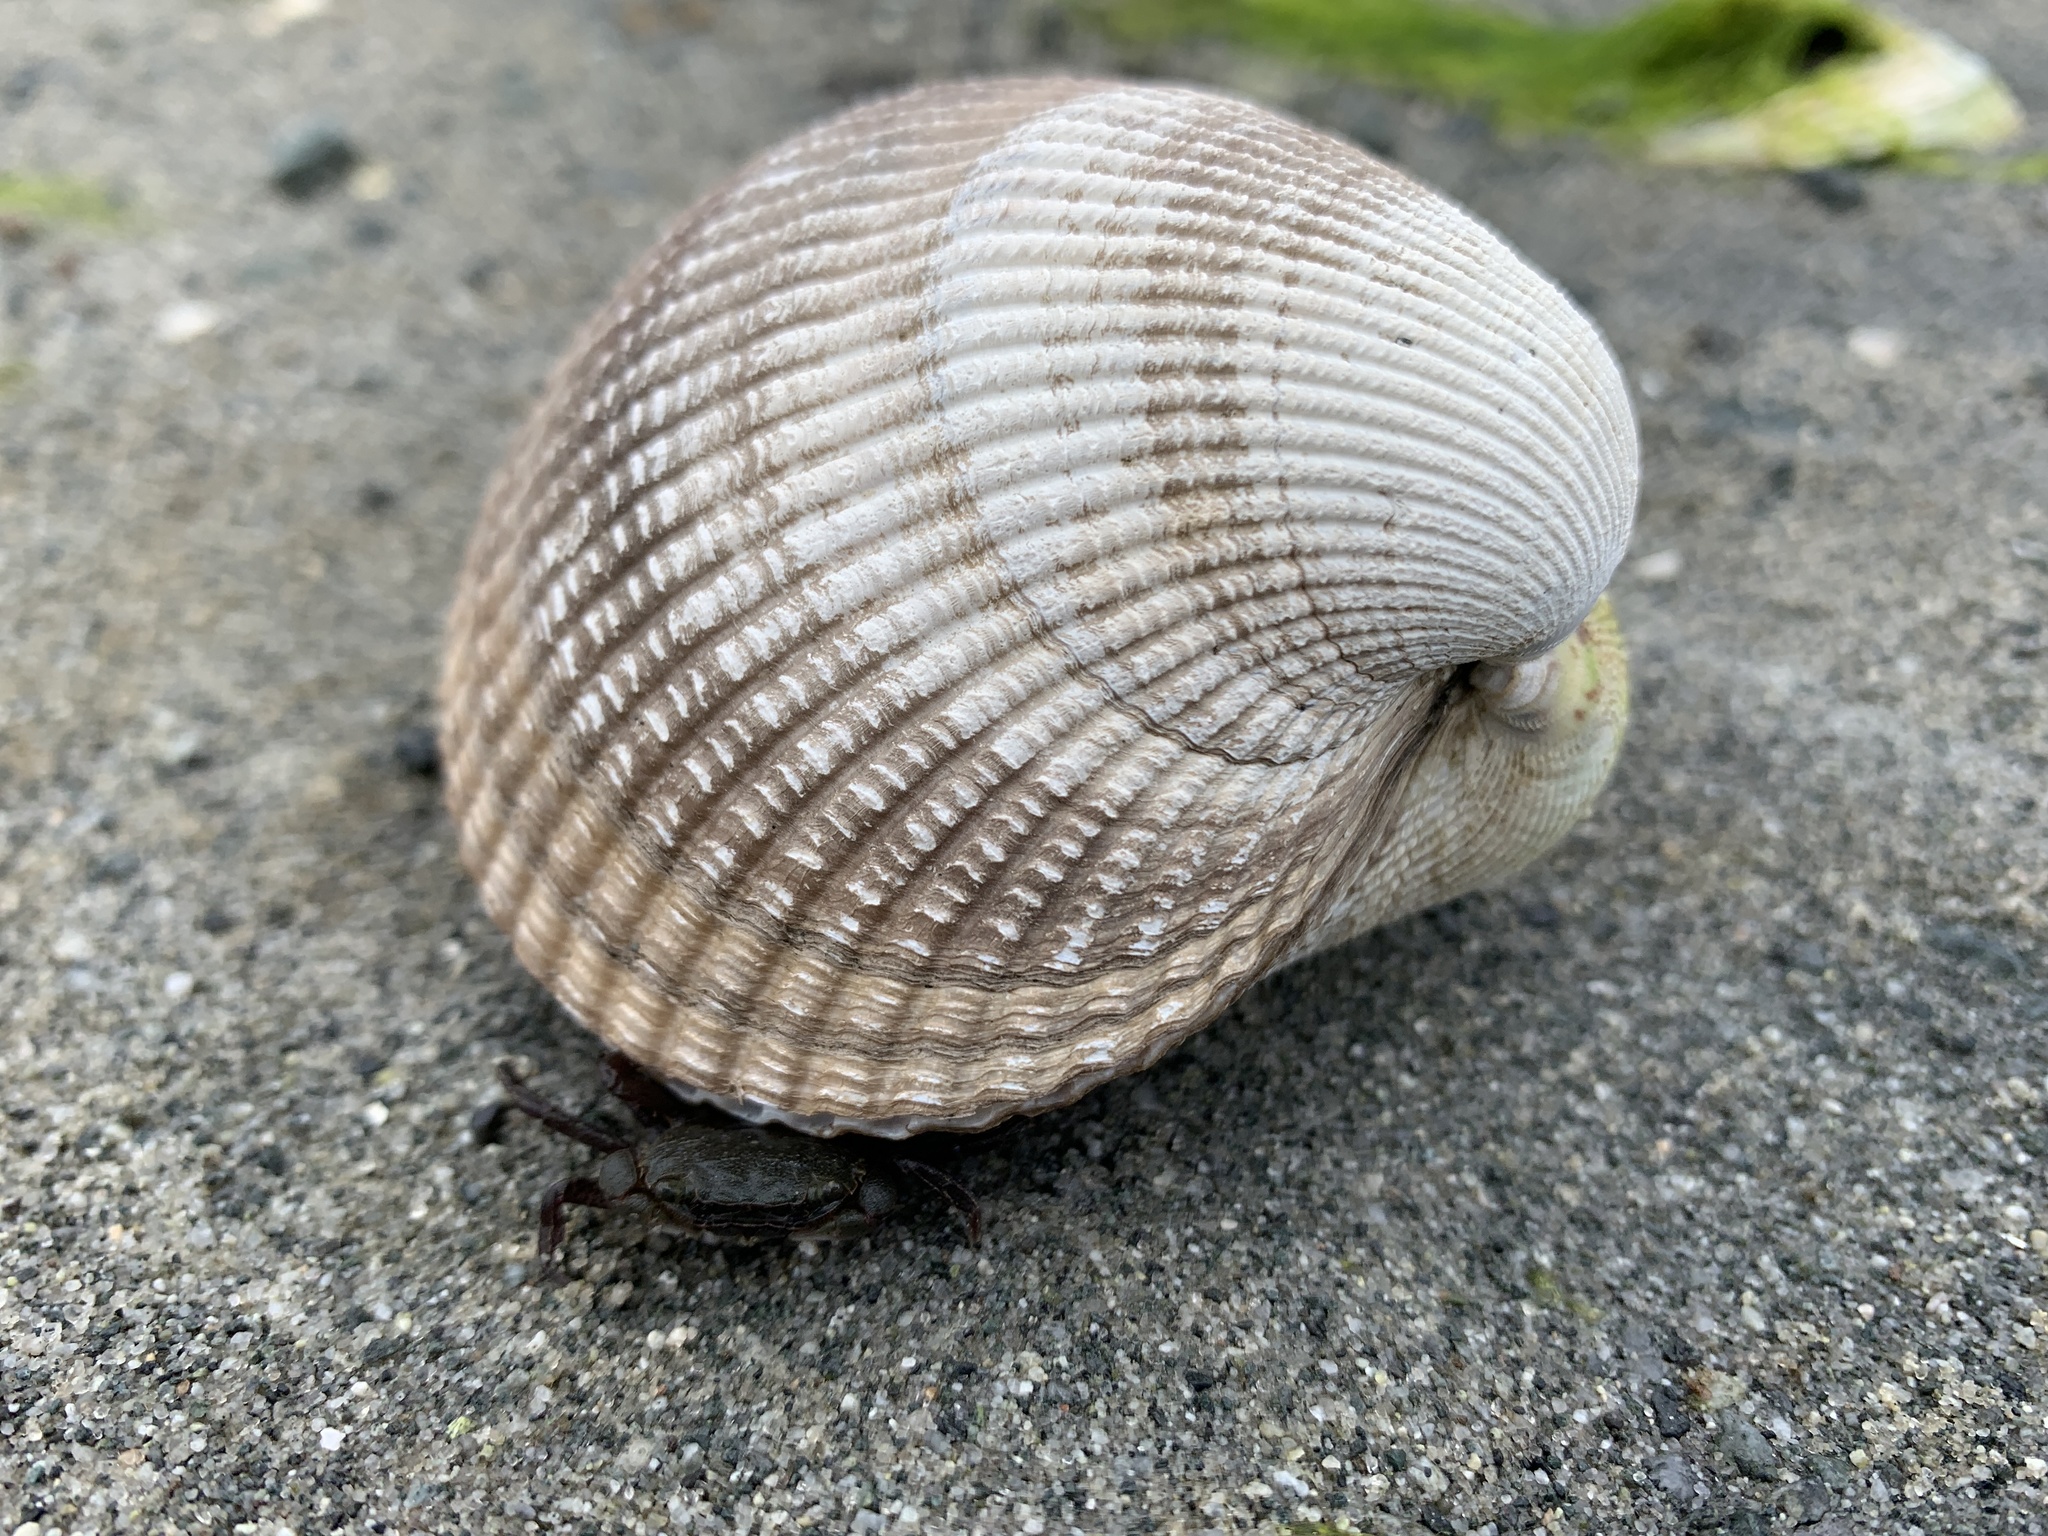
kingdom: Animalia
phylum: Mollusca
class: Bivalvia
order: Cardiida
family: Cardiidae
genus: Clinocardium
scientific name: Clinocardium nuttallii
